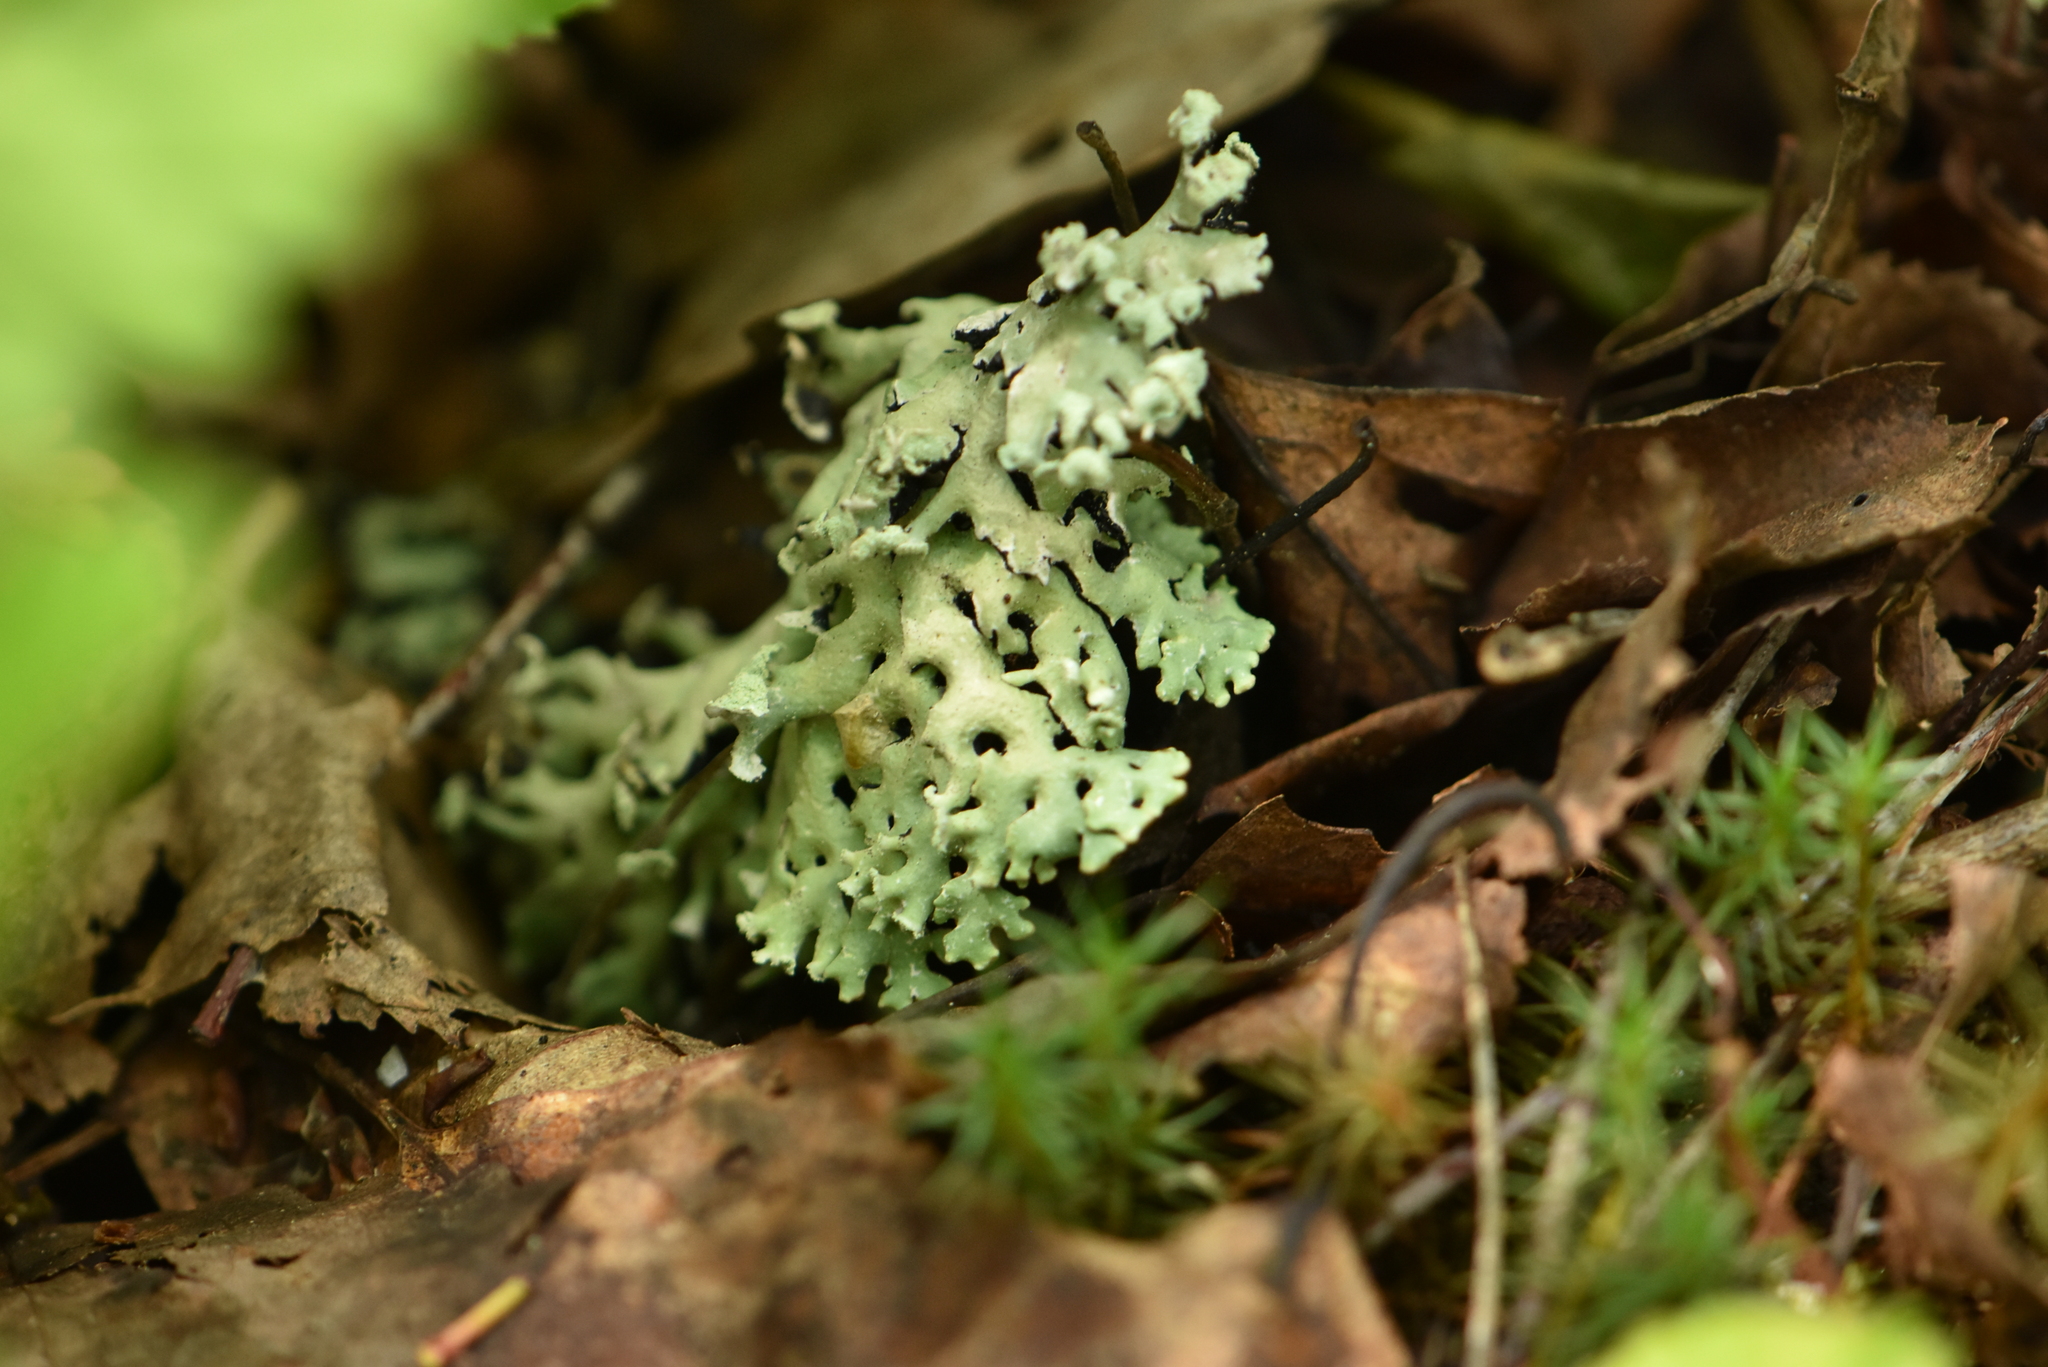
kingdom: Fungi
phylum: Ascomycota
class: Lecanoromycetes
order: Lecanorales
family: Parmeliaceae
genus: Hypogymnia
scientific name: Hypogymnia physodes
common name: Dark crottle
